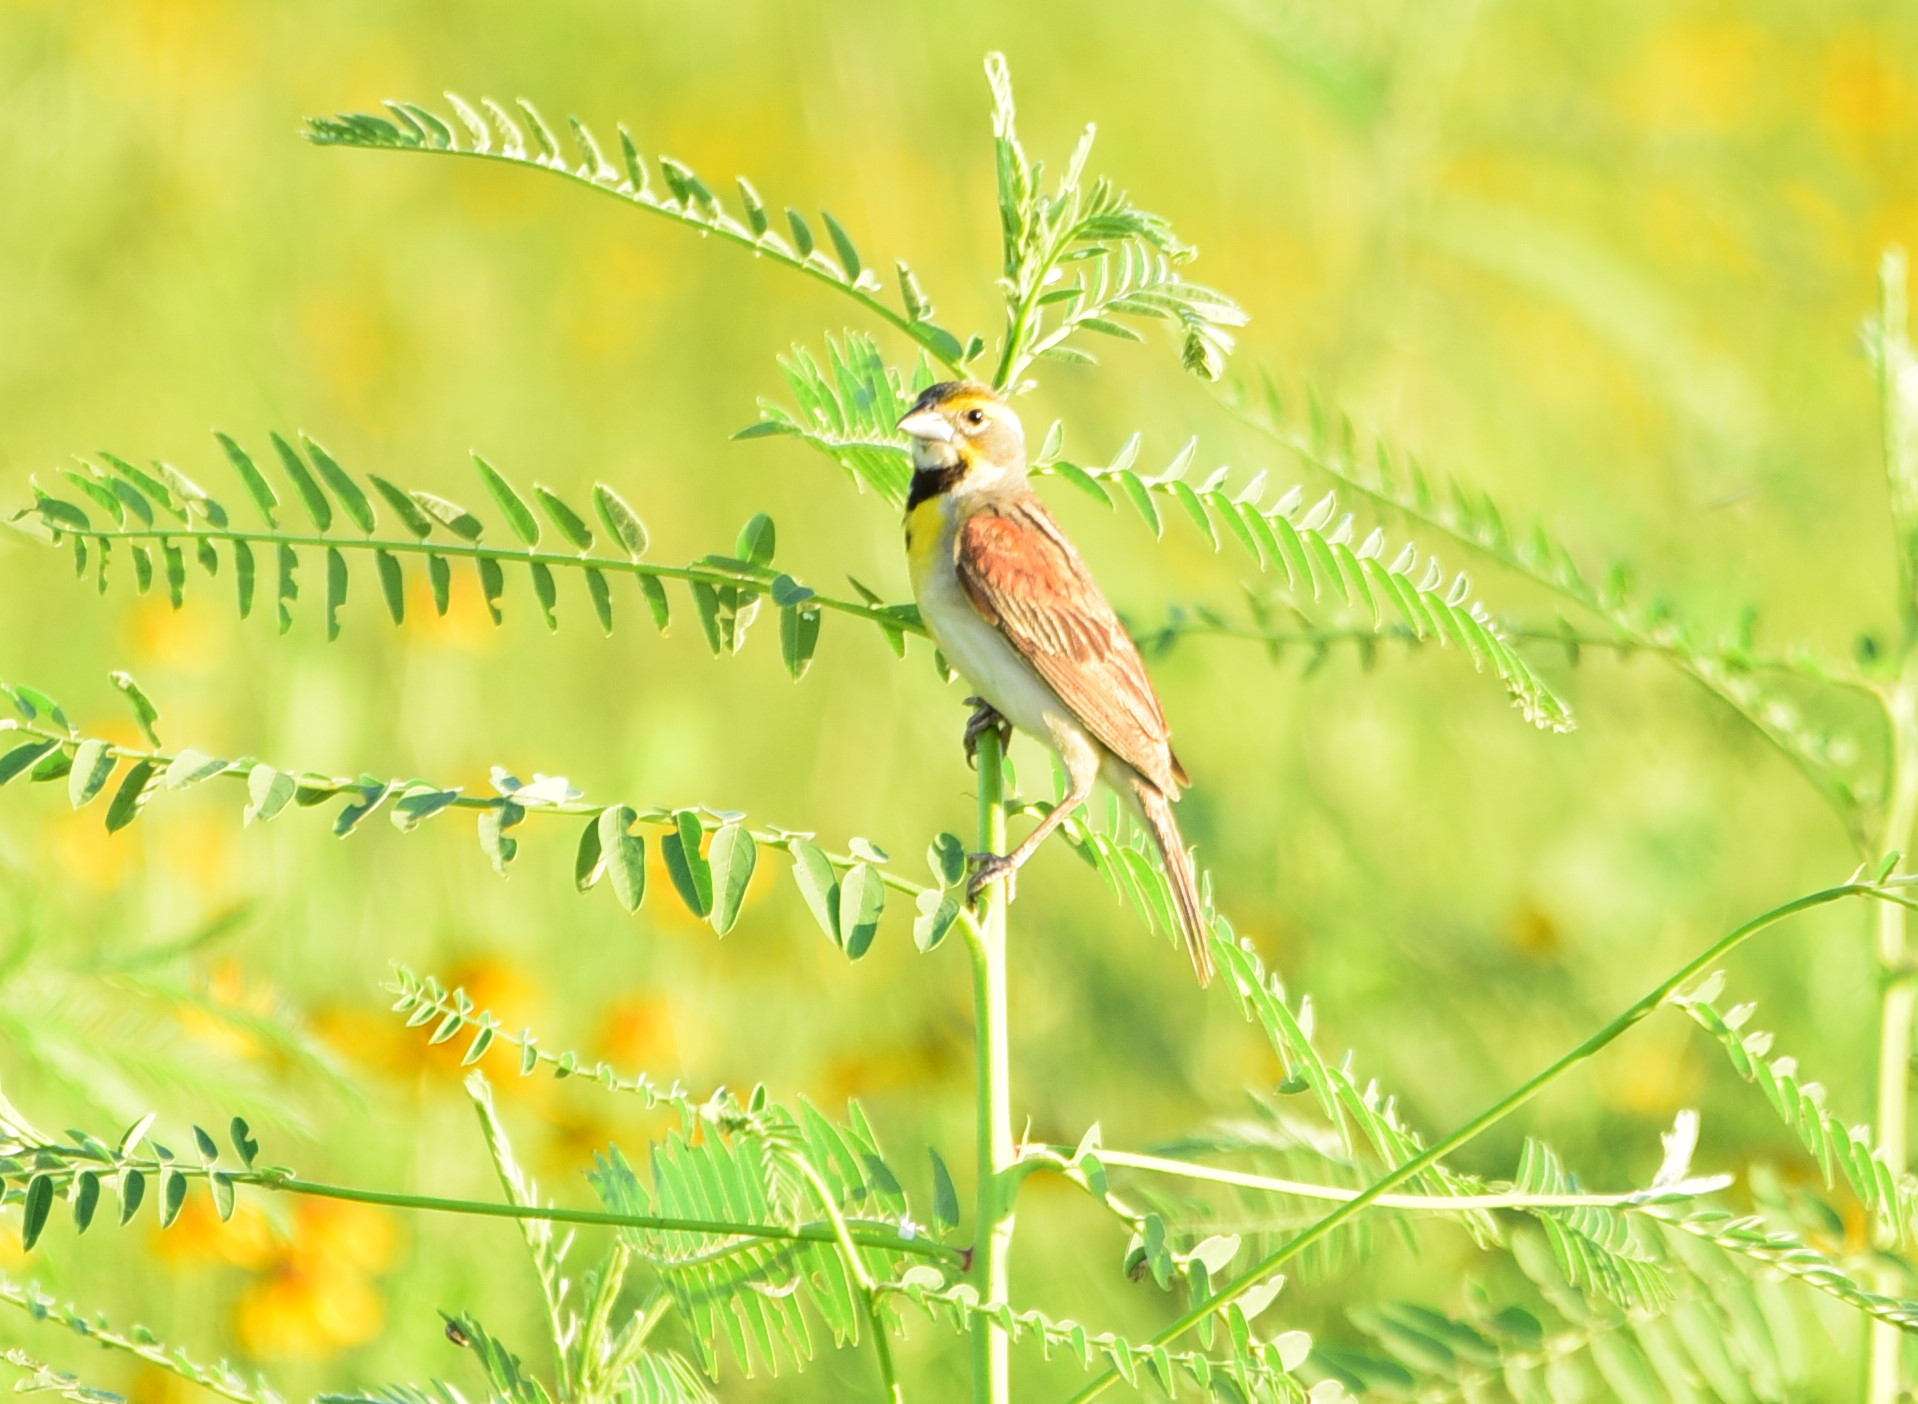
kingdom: Animalia
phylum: Chordata
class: Aves
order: Passeriformes
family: Cardinalidae
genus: Spiza
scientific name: Spiza americana
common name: Dickcissel
